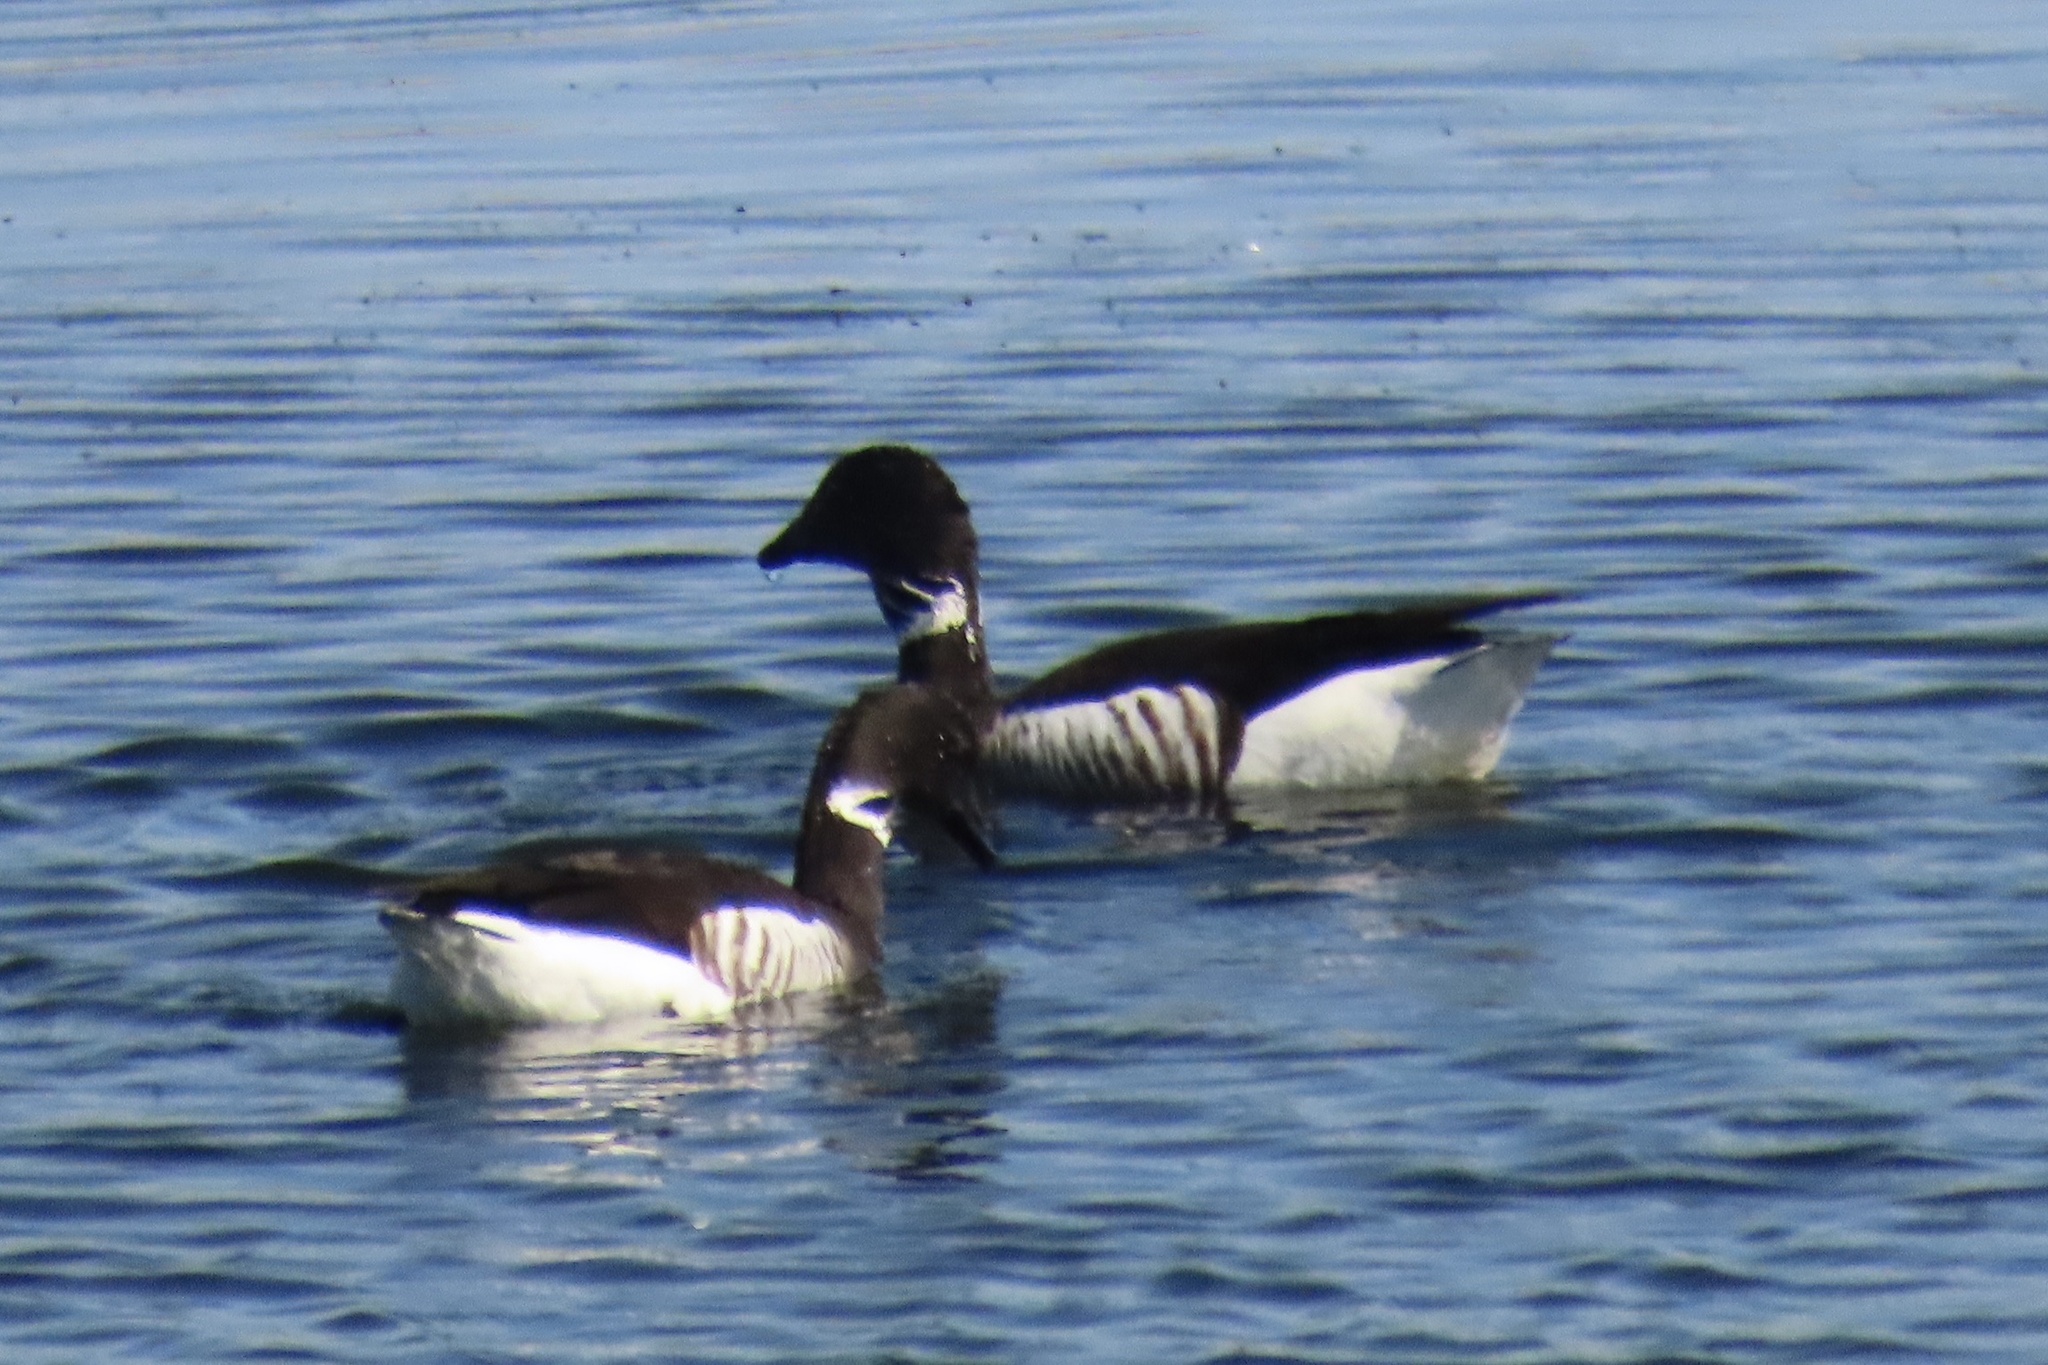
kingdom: Animalia
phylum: Chordata
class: Aves
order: Anseriformes
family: Anatidae
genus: Branta
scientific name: Branta bernicla
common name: Brant goose
